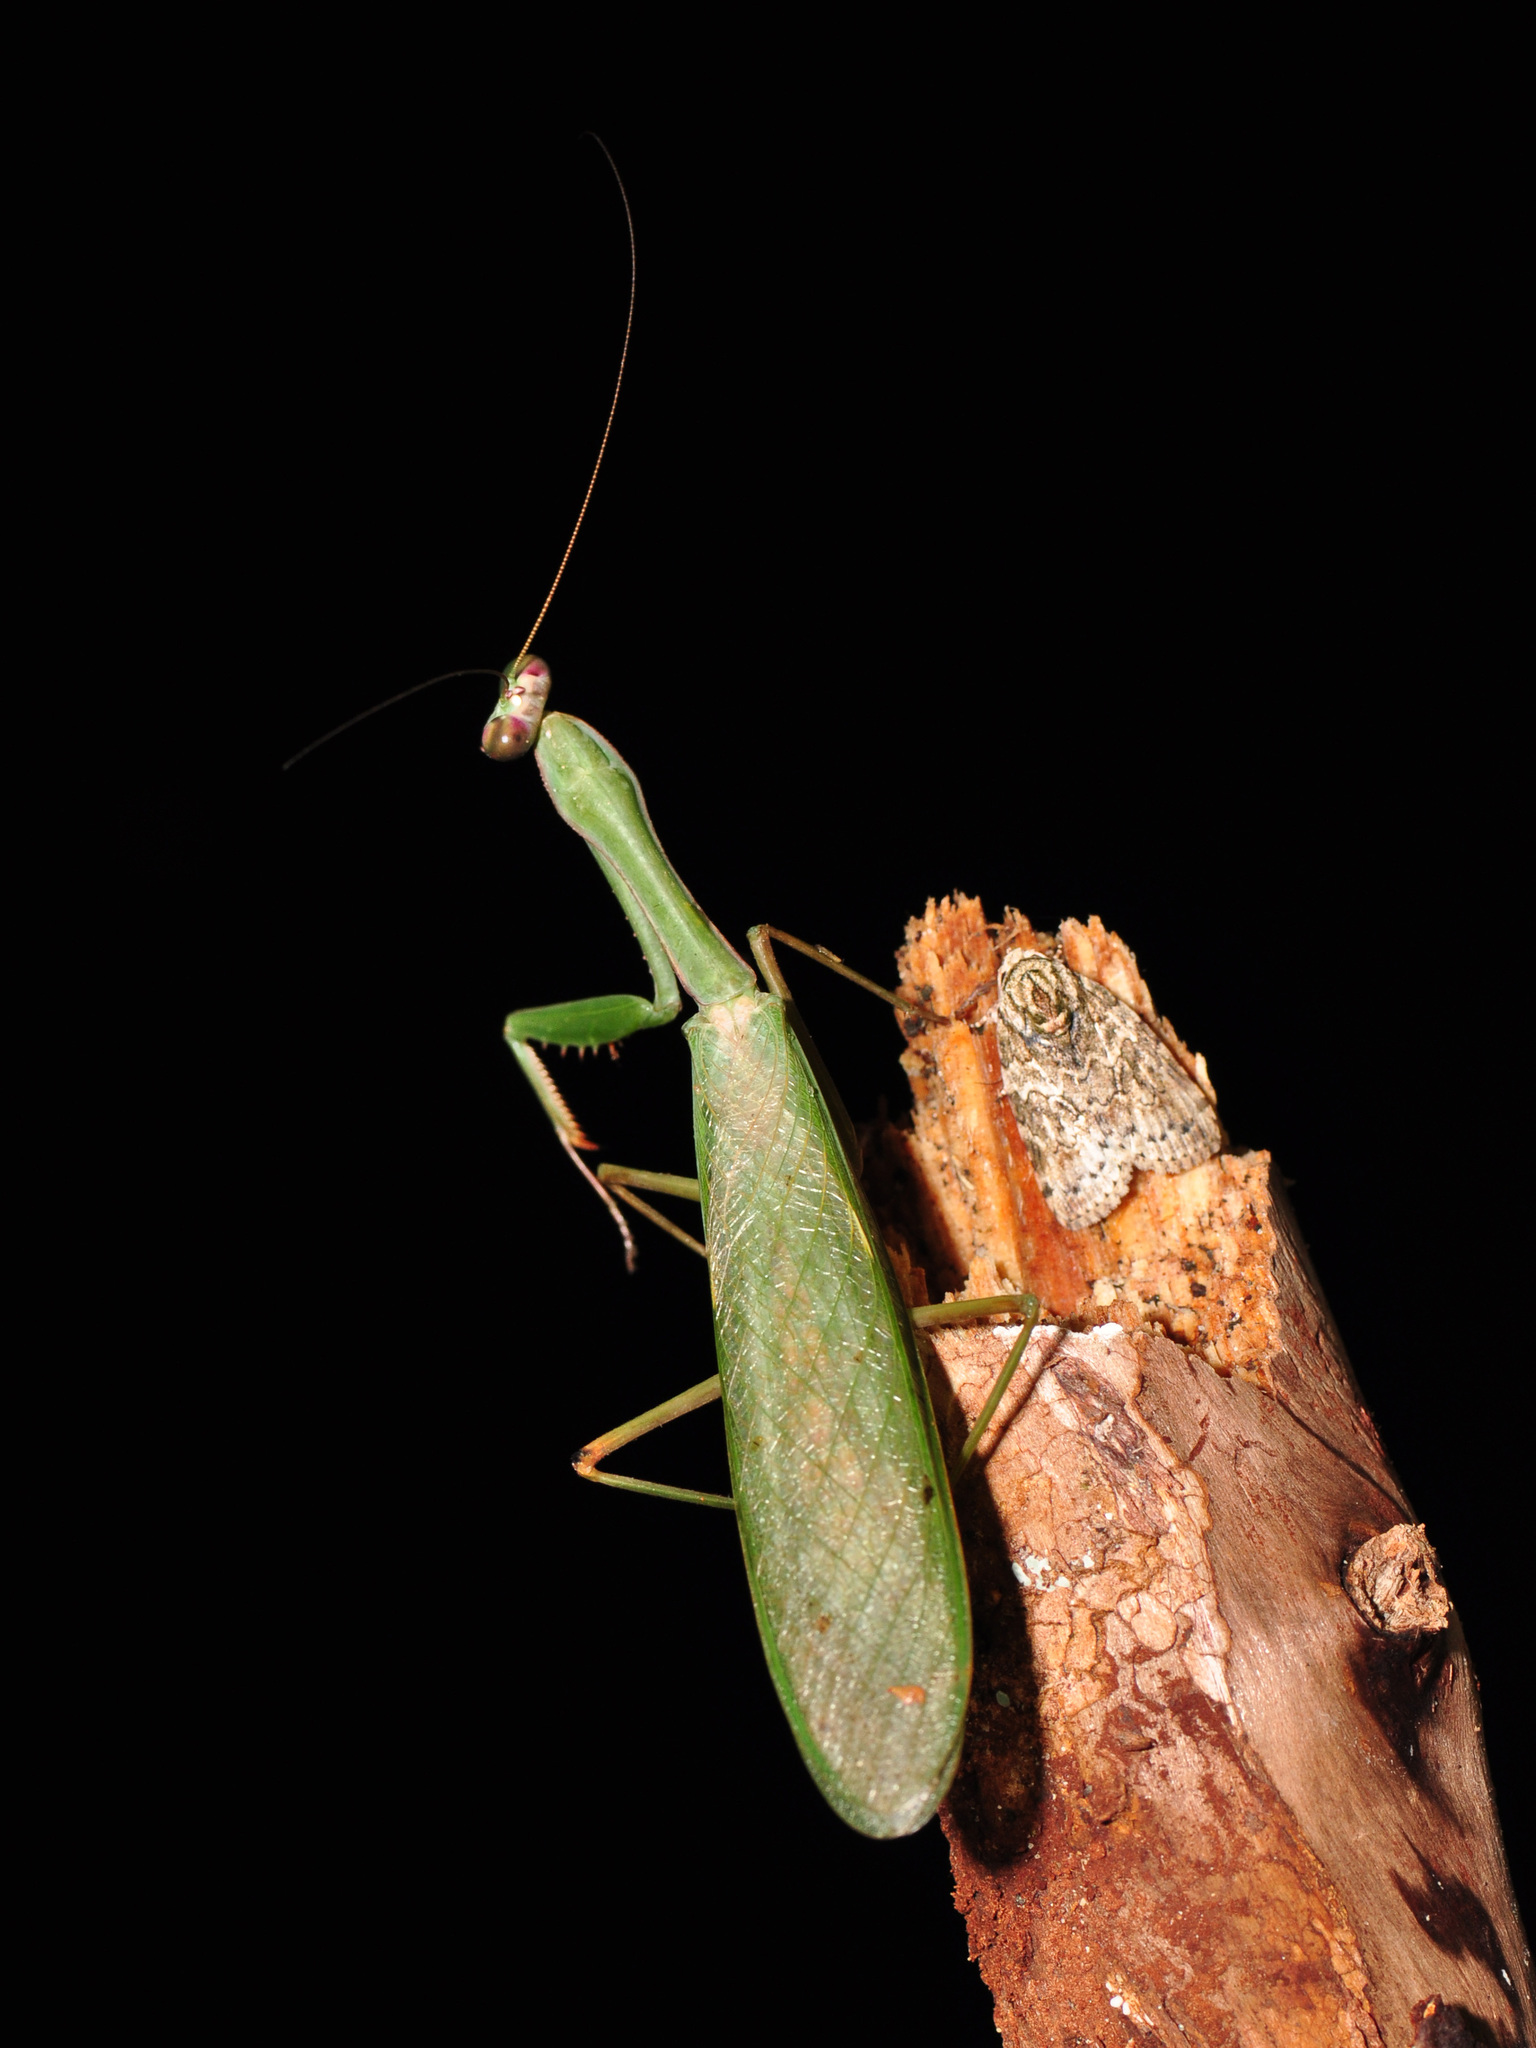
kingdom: Animalia
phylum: Arthropoda
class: Insecta
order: Mantodea
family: Mantidae
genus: Hierodula
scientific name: Hierodula dyaka
